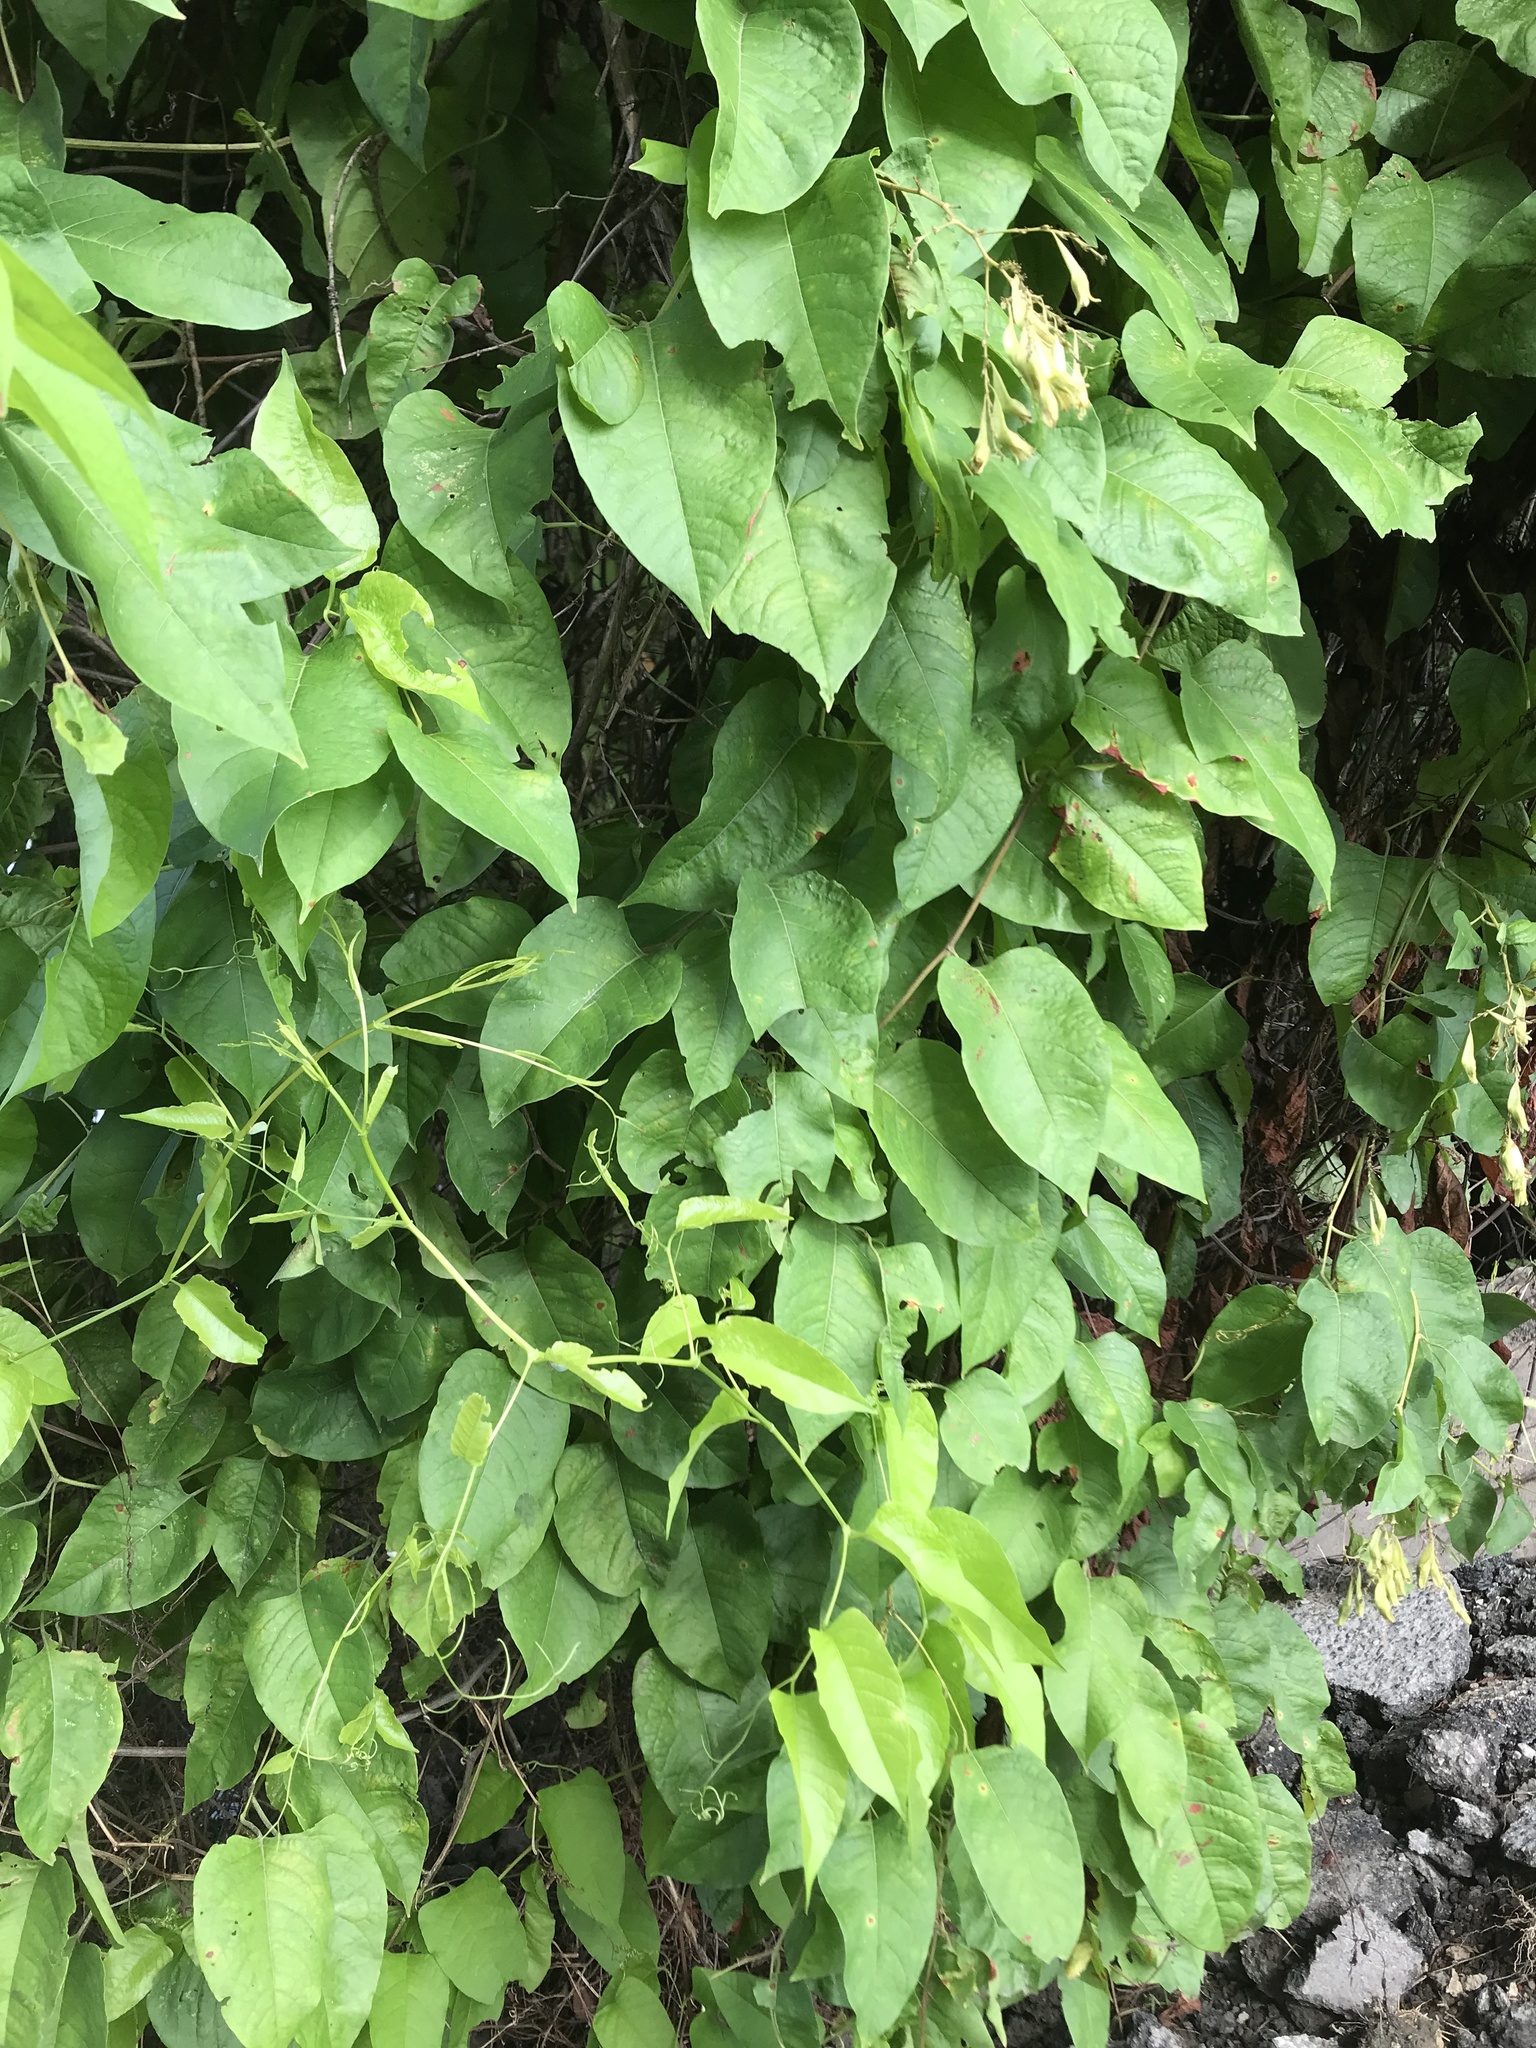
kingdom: Plantae
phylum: Tracheophyta
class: Magnoliopsida
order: Caryophyllales
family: Polygonaceae
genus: Brunnichia
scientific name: Brunnichia ovata
